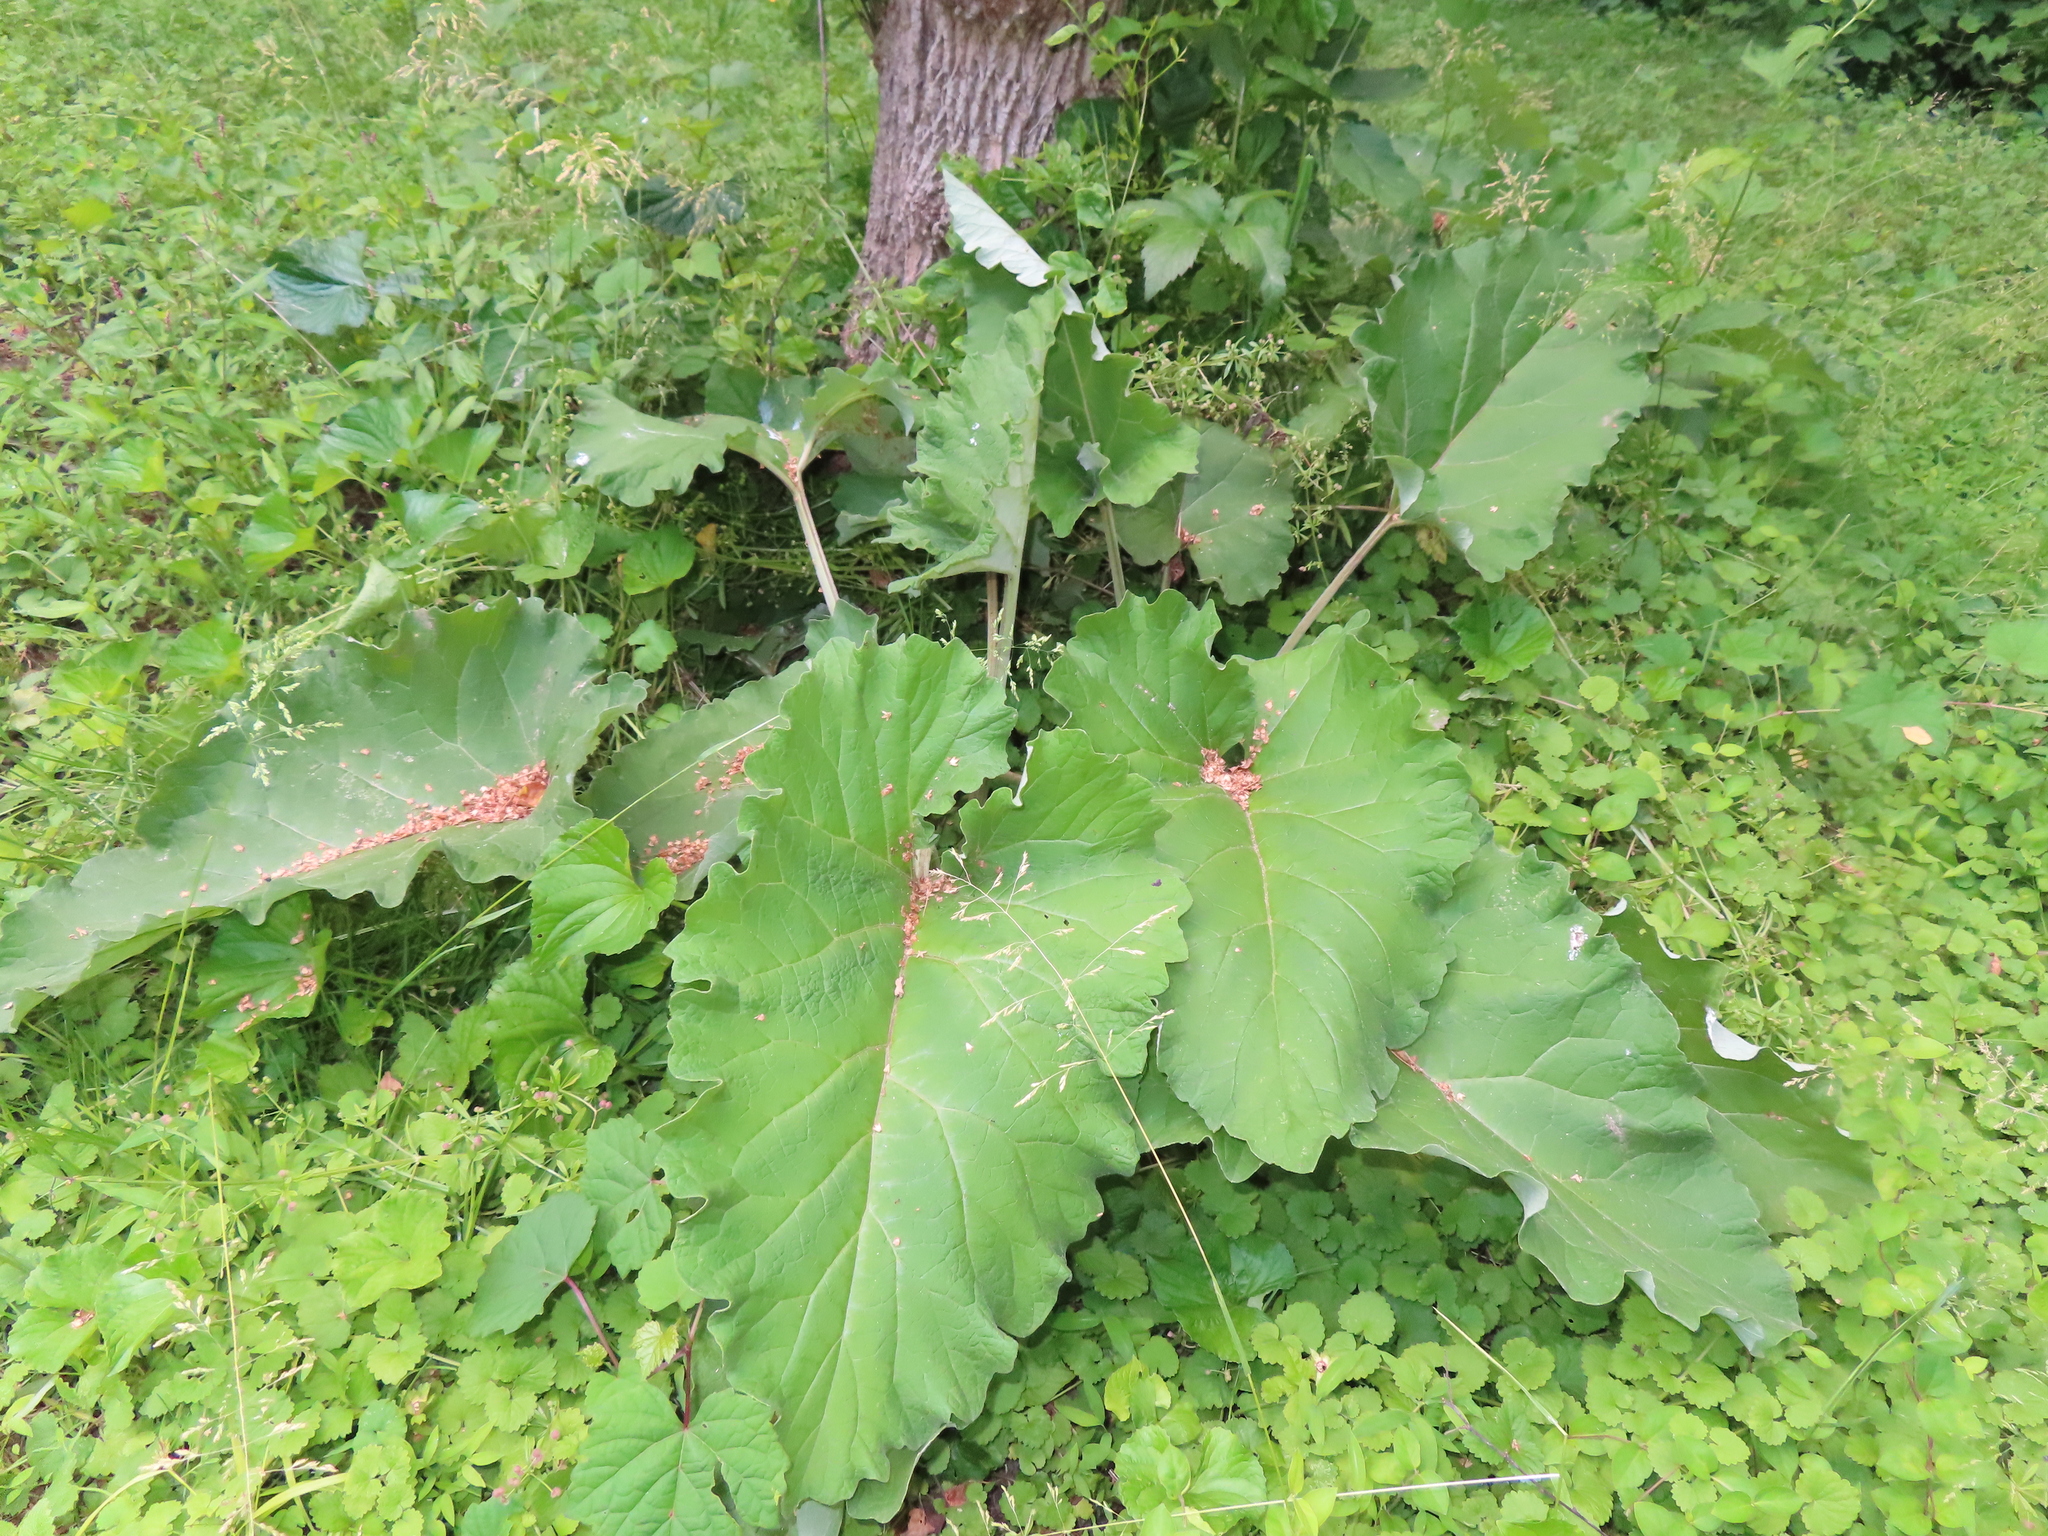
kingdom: Plantae
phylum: Tracheophyta
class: Magnoliopsida
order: Asterales
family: Asteraceae
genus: Arctium
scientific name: Arctium lappa
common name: Greater burdock
